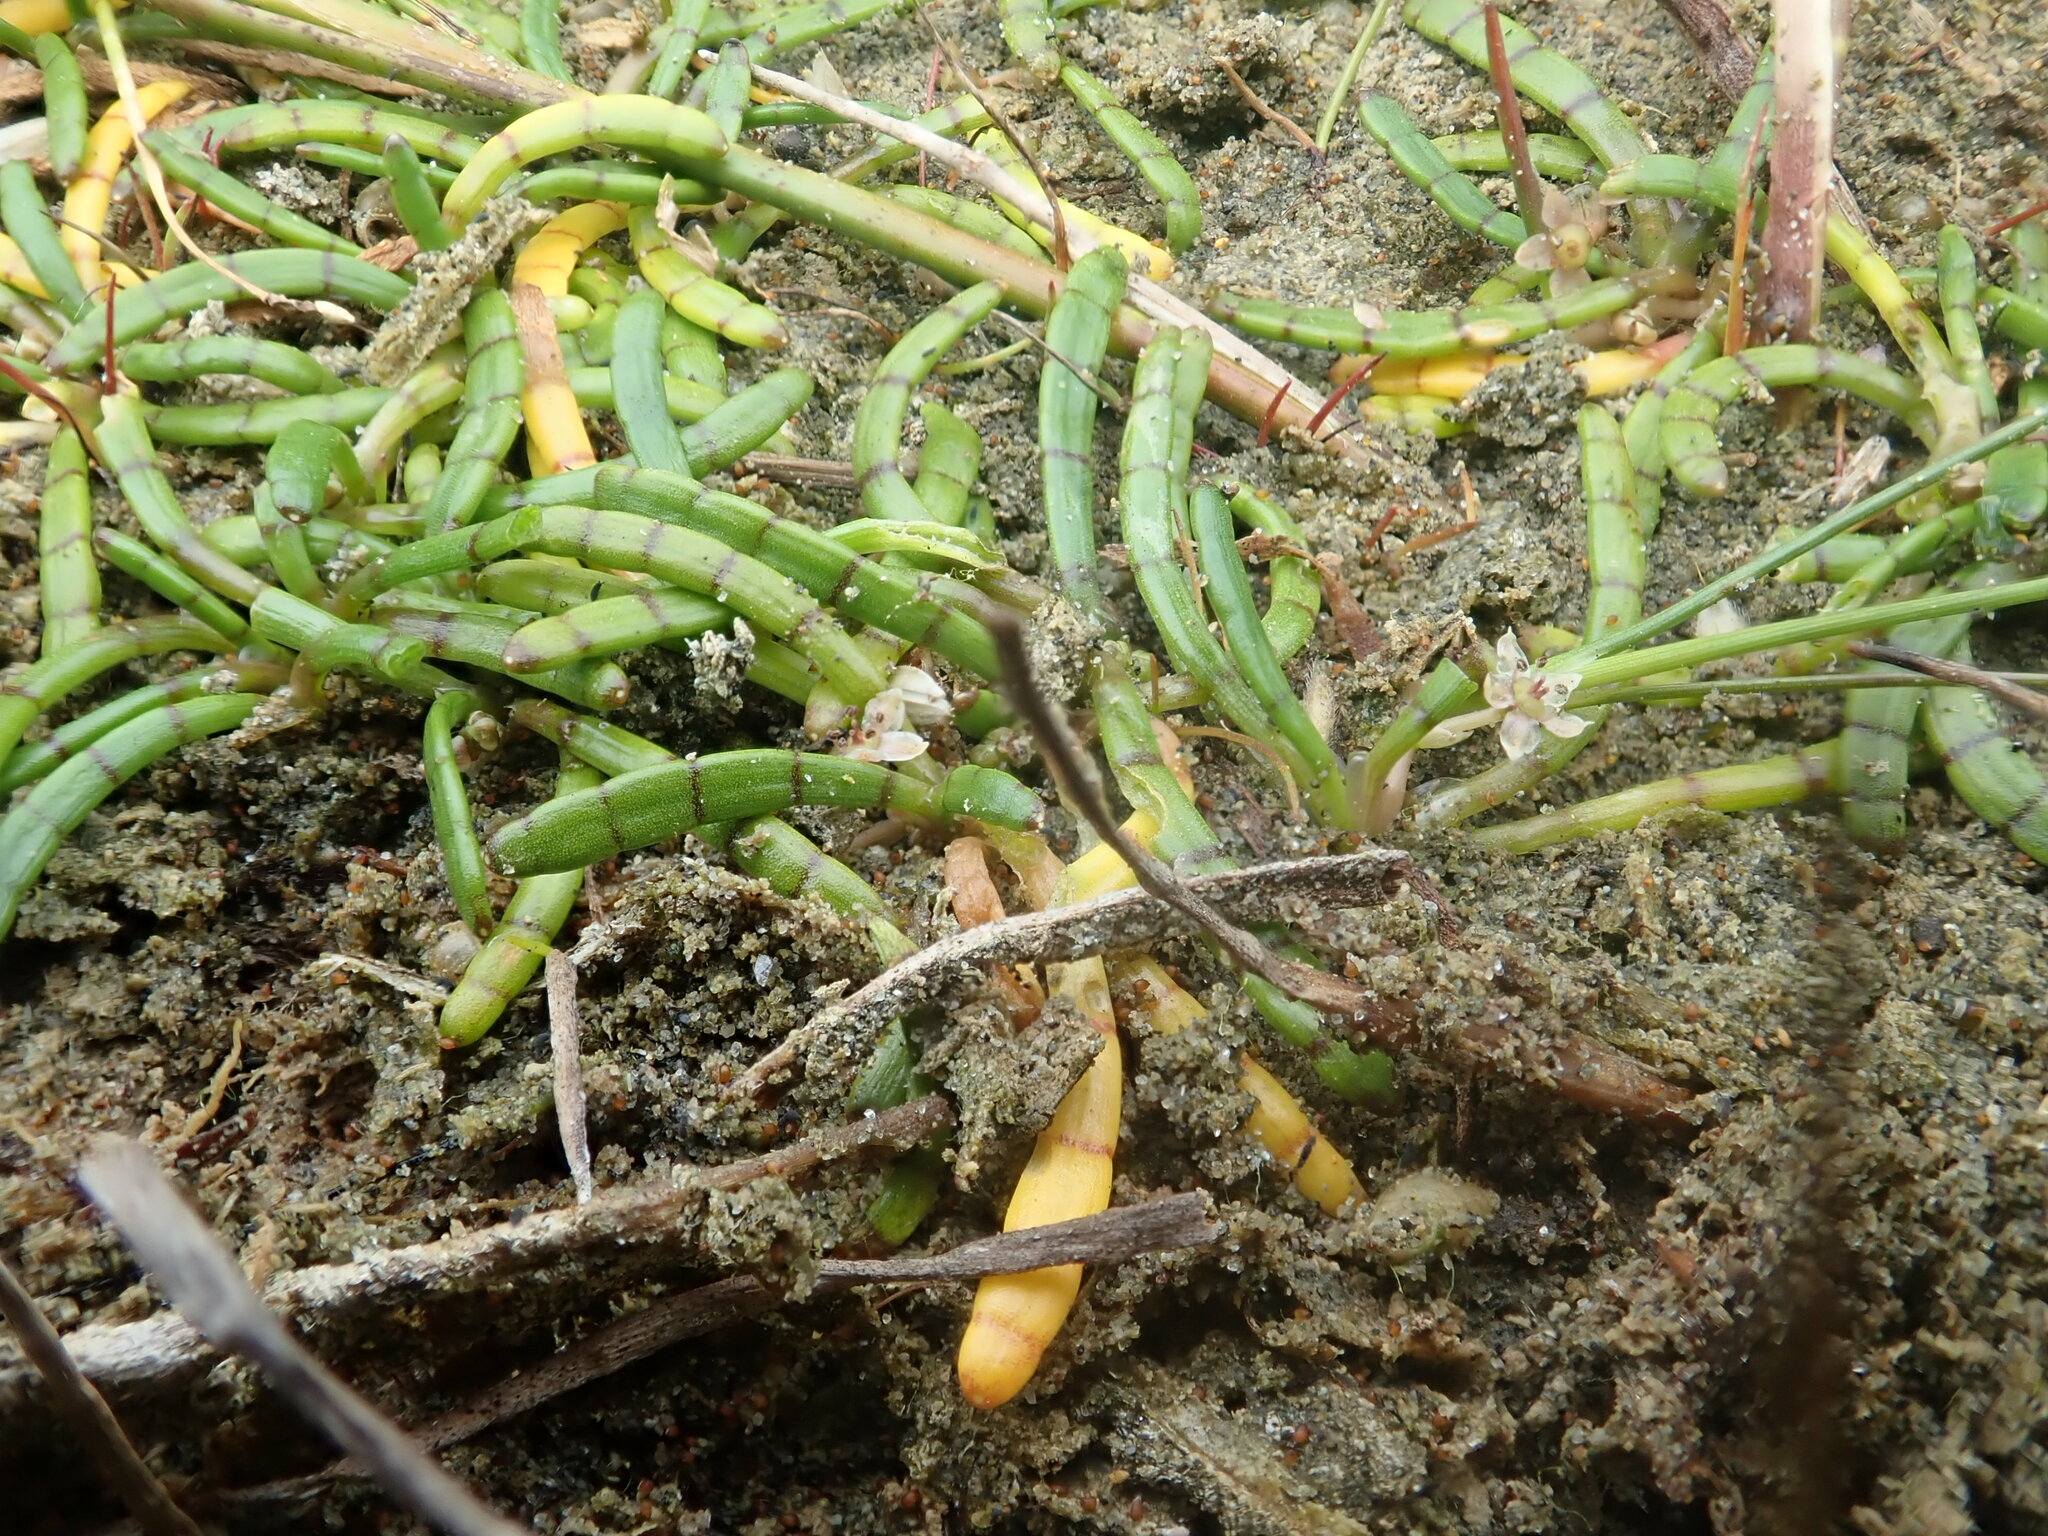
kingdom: Plantae
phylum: Tracheophyta
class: Magnoliopsida
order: Apiales
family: Apiaceae
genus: Lilaeopsis
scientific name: Lilaeopsis novae-zelandiae
